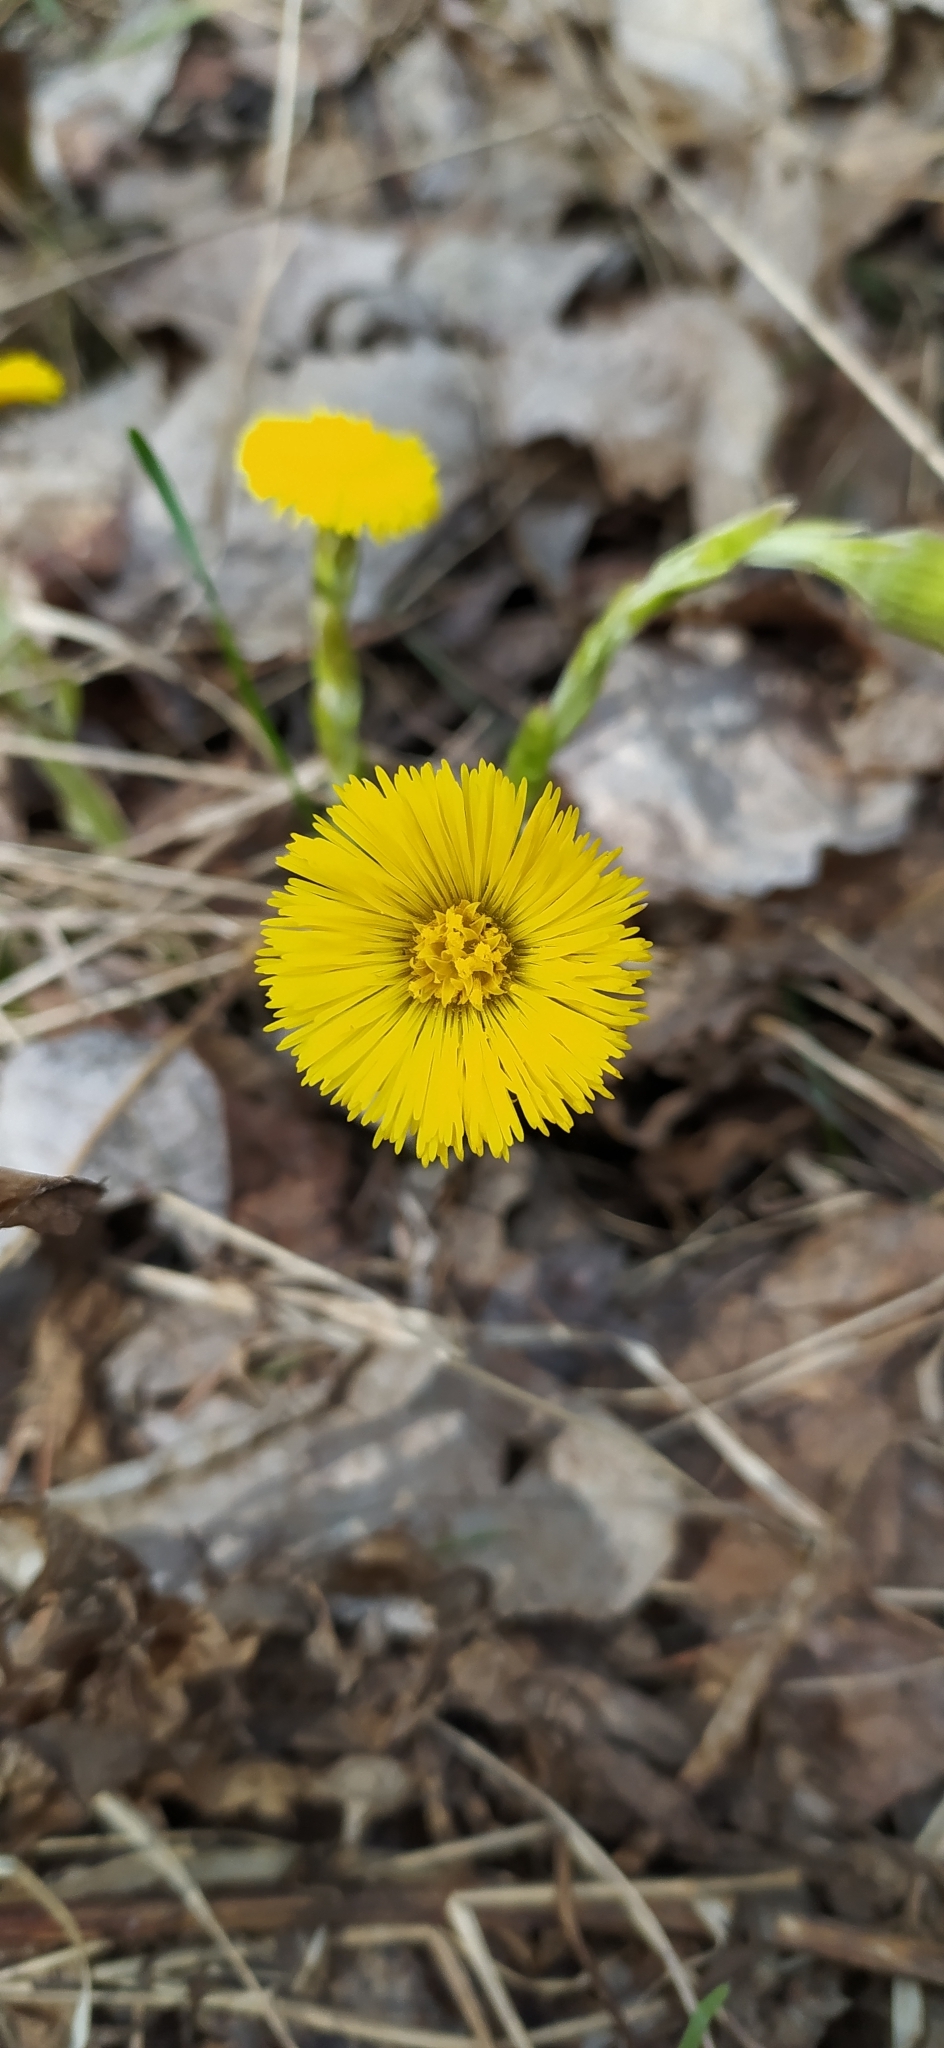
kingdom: Plantae
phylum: Tracheophyta
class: Magnoliopsida
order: Asterales
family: Asteraceae
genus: Tussilago
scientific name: Tussilago farfara
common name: Coltsfoot
